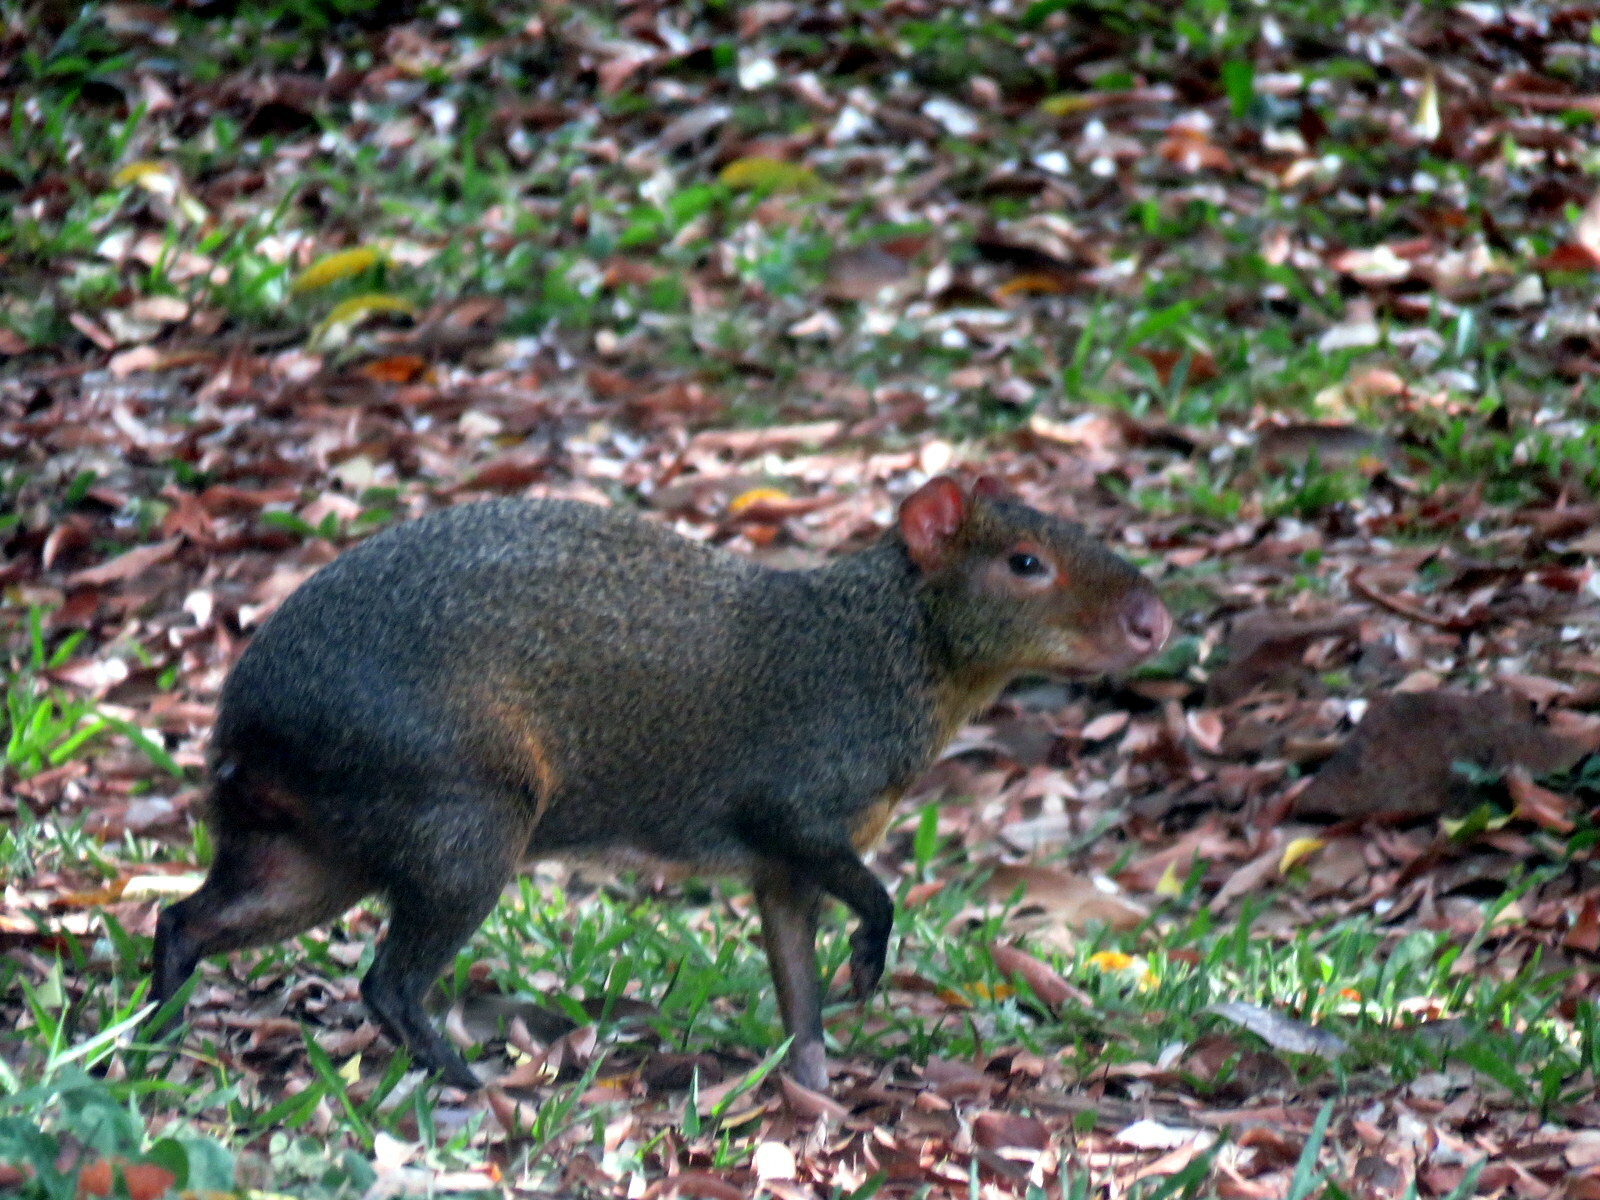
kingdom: Animalia
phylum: Chordata
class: Mammalia
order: Rodentia
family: Dasyproctidae
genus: Dasyprocta
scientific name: Dasyprocta azarae
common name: Azara's agouti
